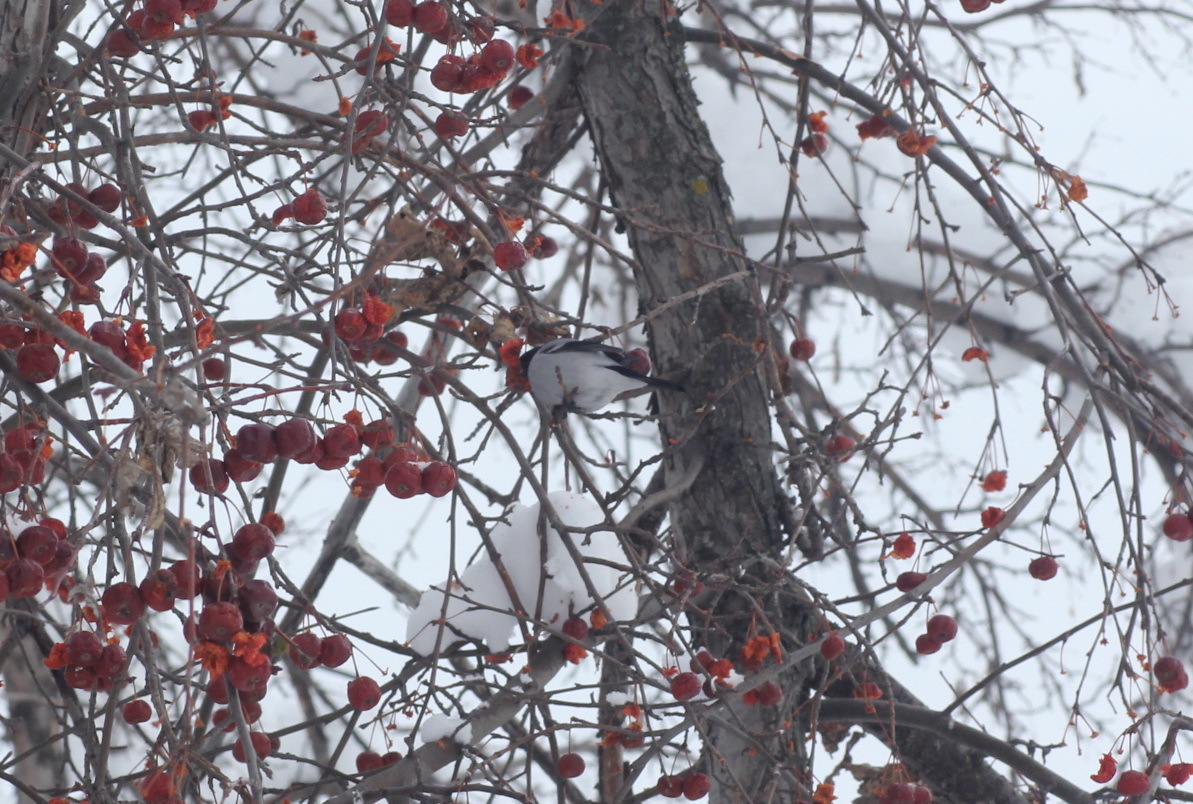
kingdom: Animalia
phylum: Chordata
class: Aves
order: Passeriformes
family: Fringillidae
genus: Pyrrhula
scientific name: Pyrrhula pyrrhula
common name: Eurasian bullfinch
